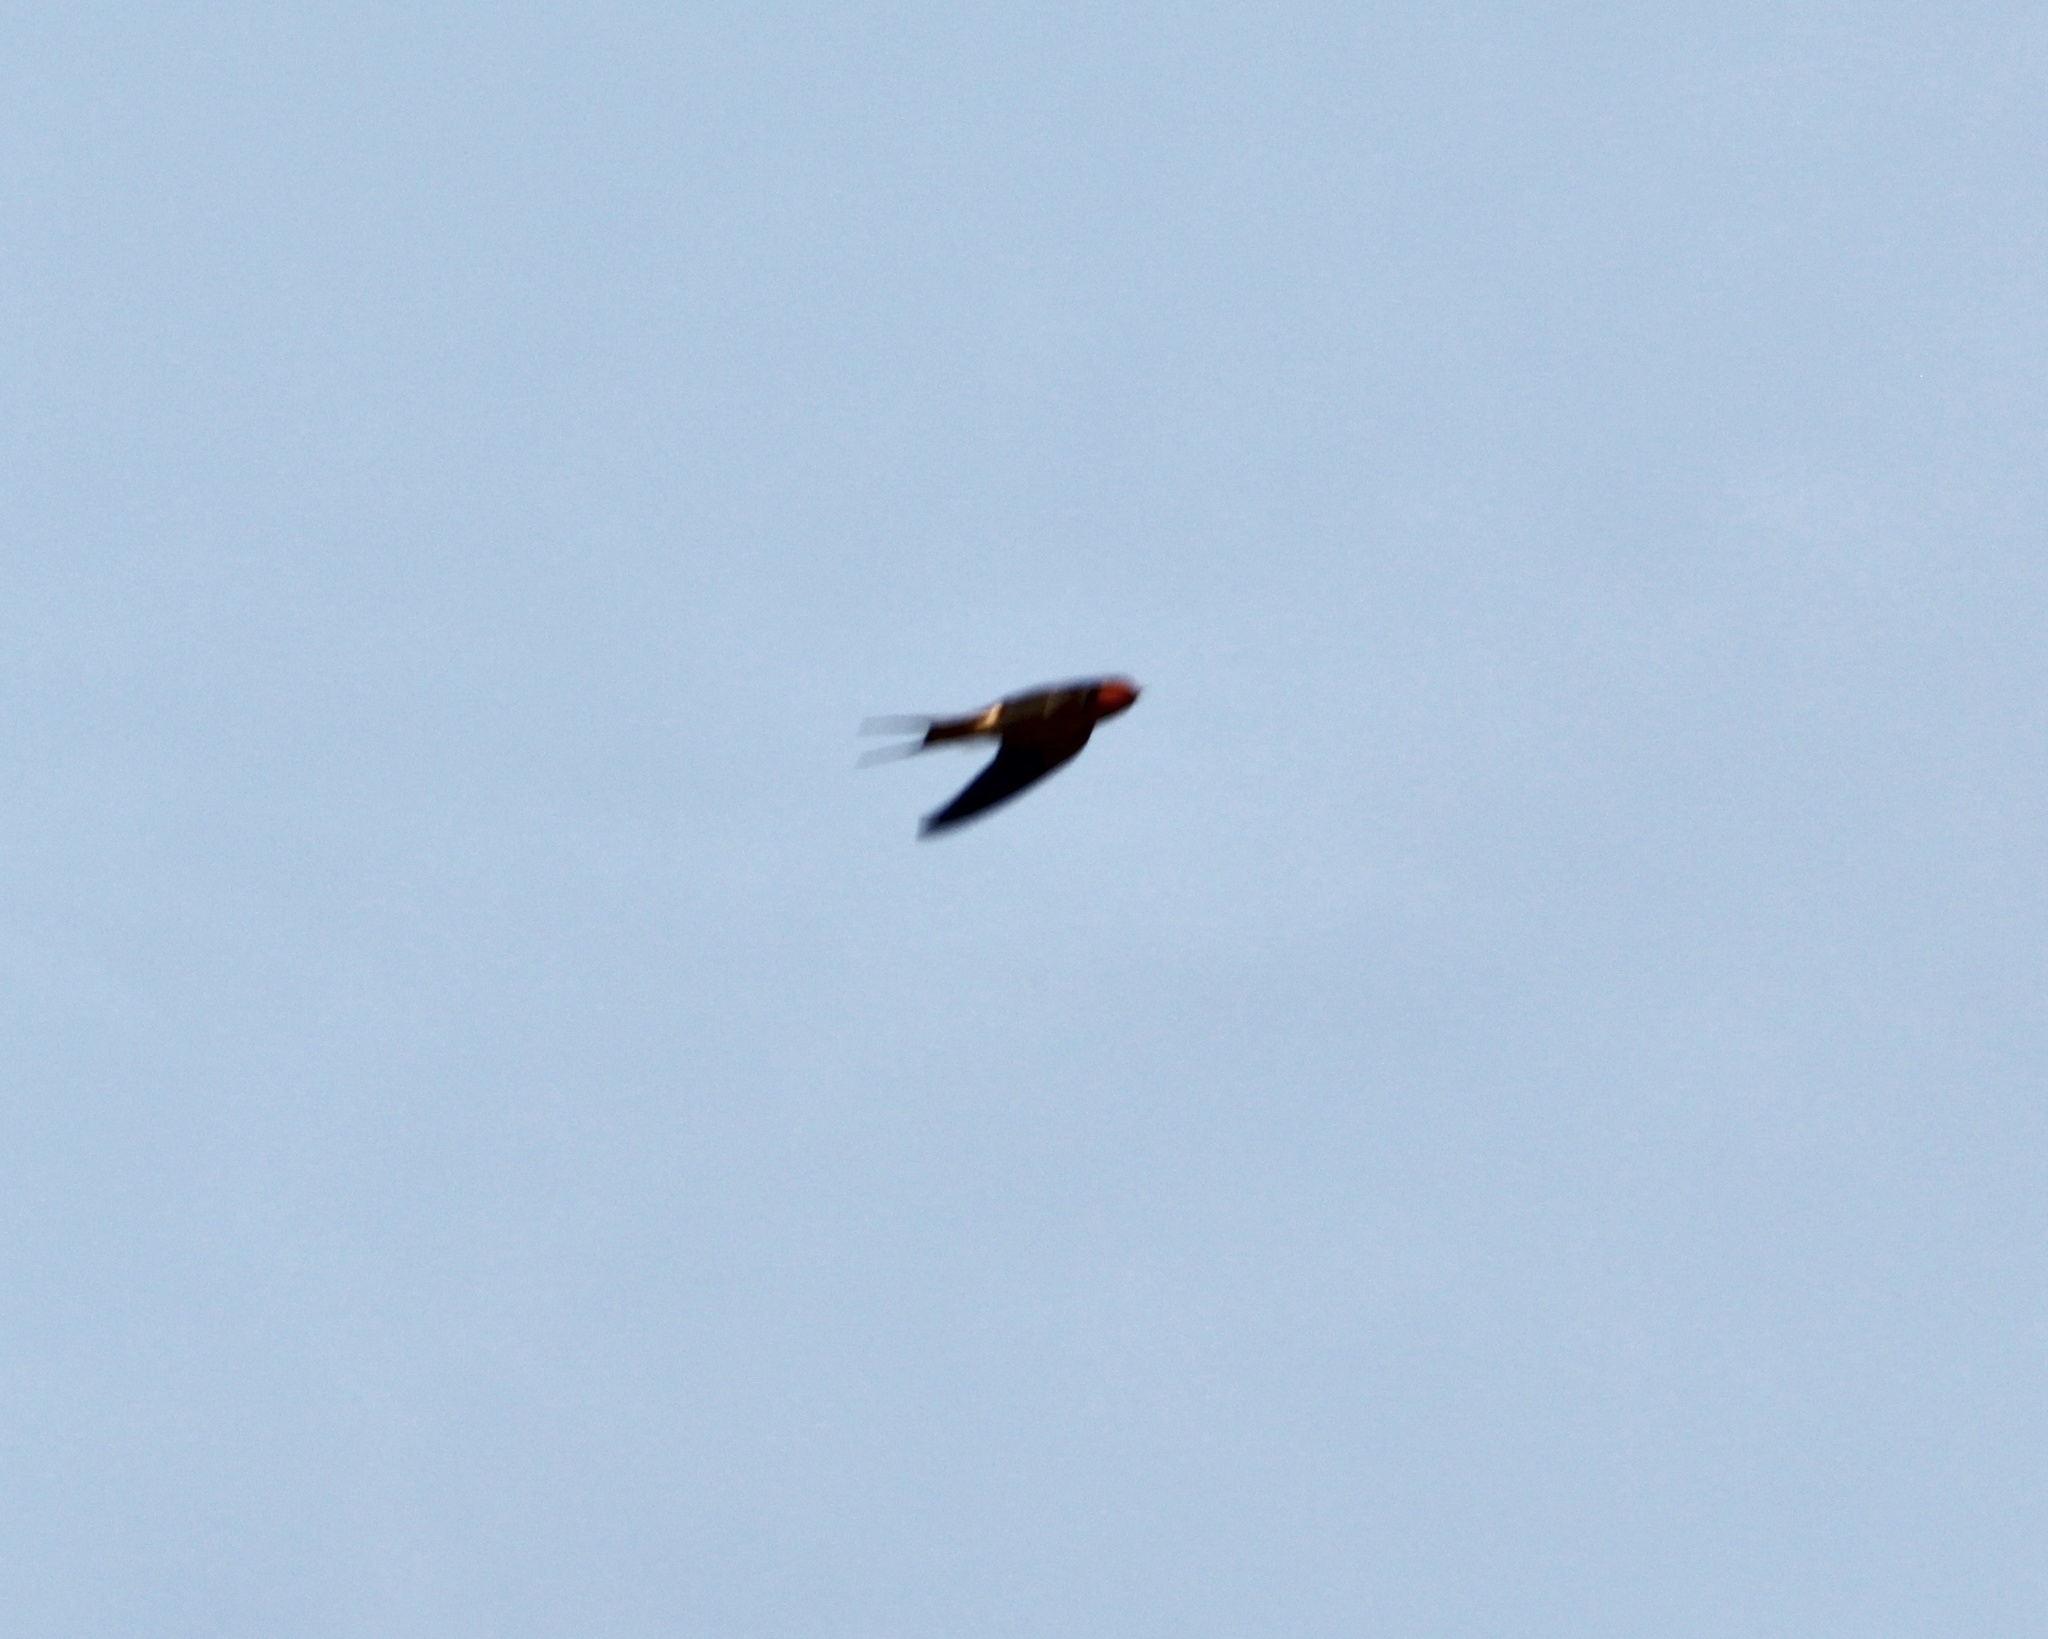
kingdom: Animalia
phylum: Chordata
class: Aves
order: Passeriformes
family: Hirundinidae
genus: Hirundo
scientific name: Hirundo rustica
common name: Barn swallow
